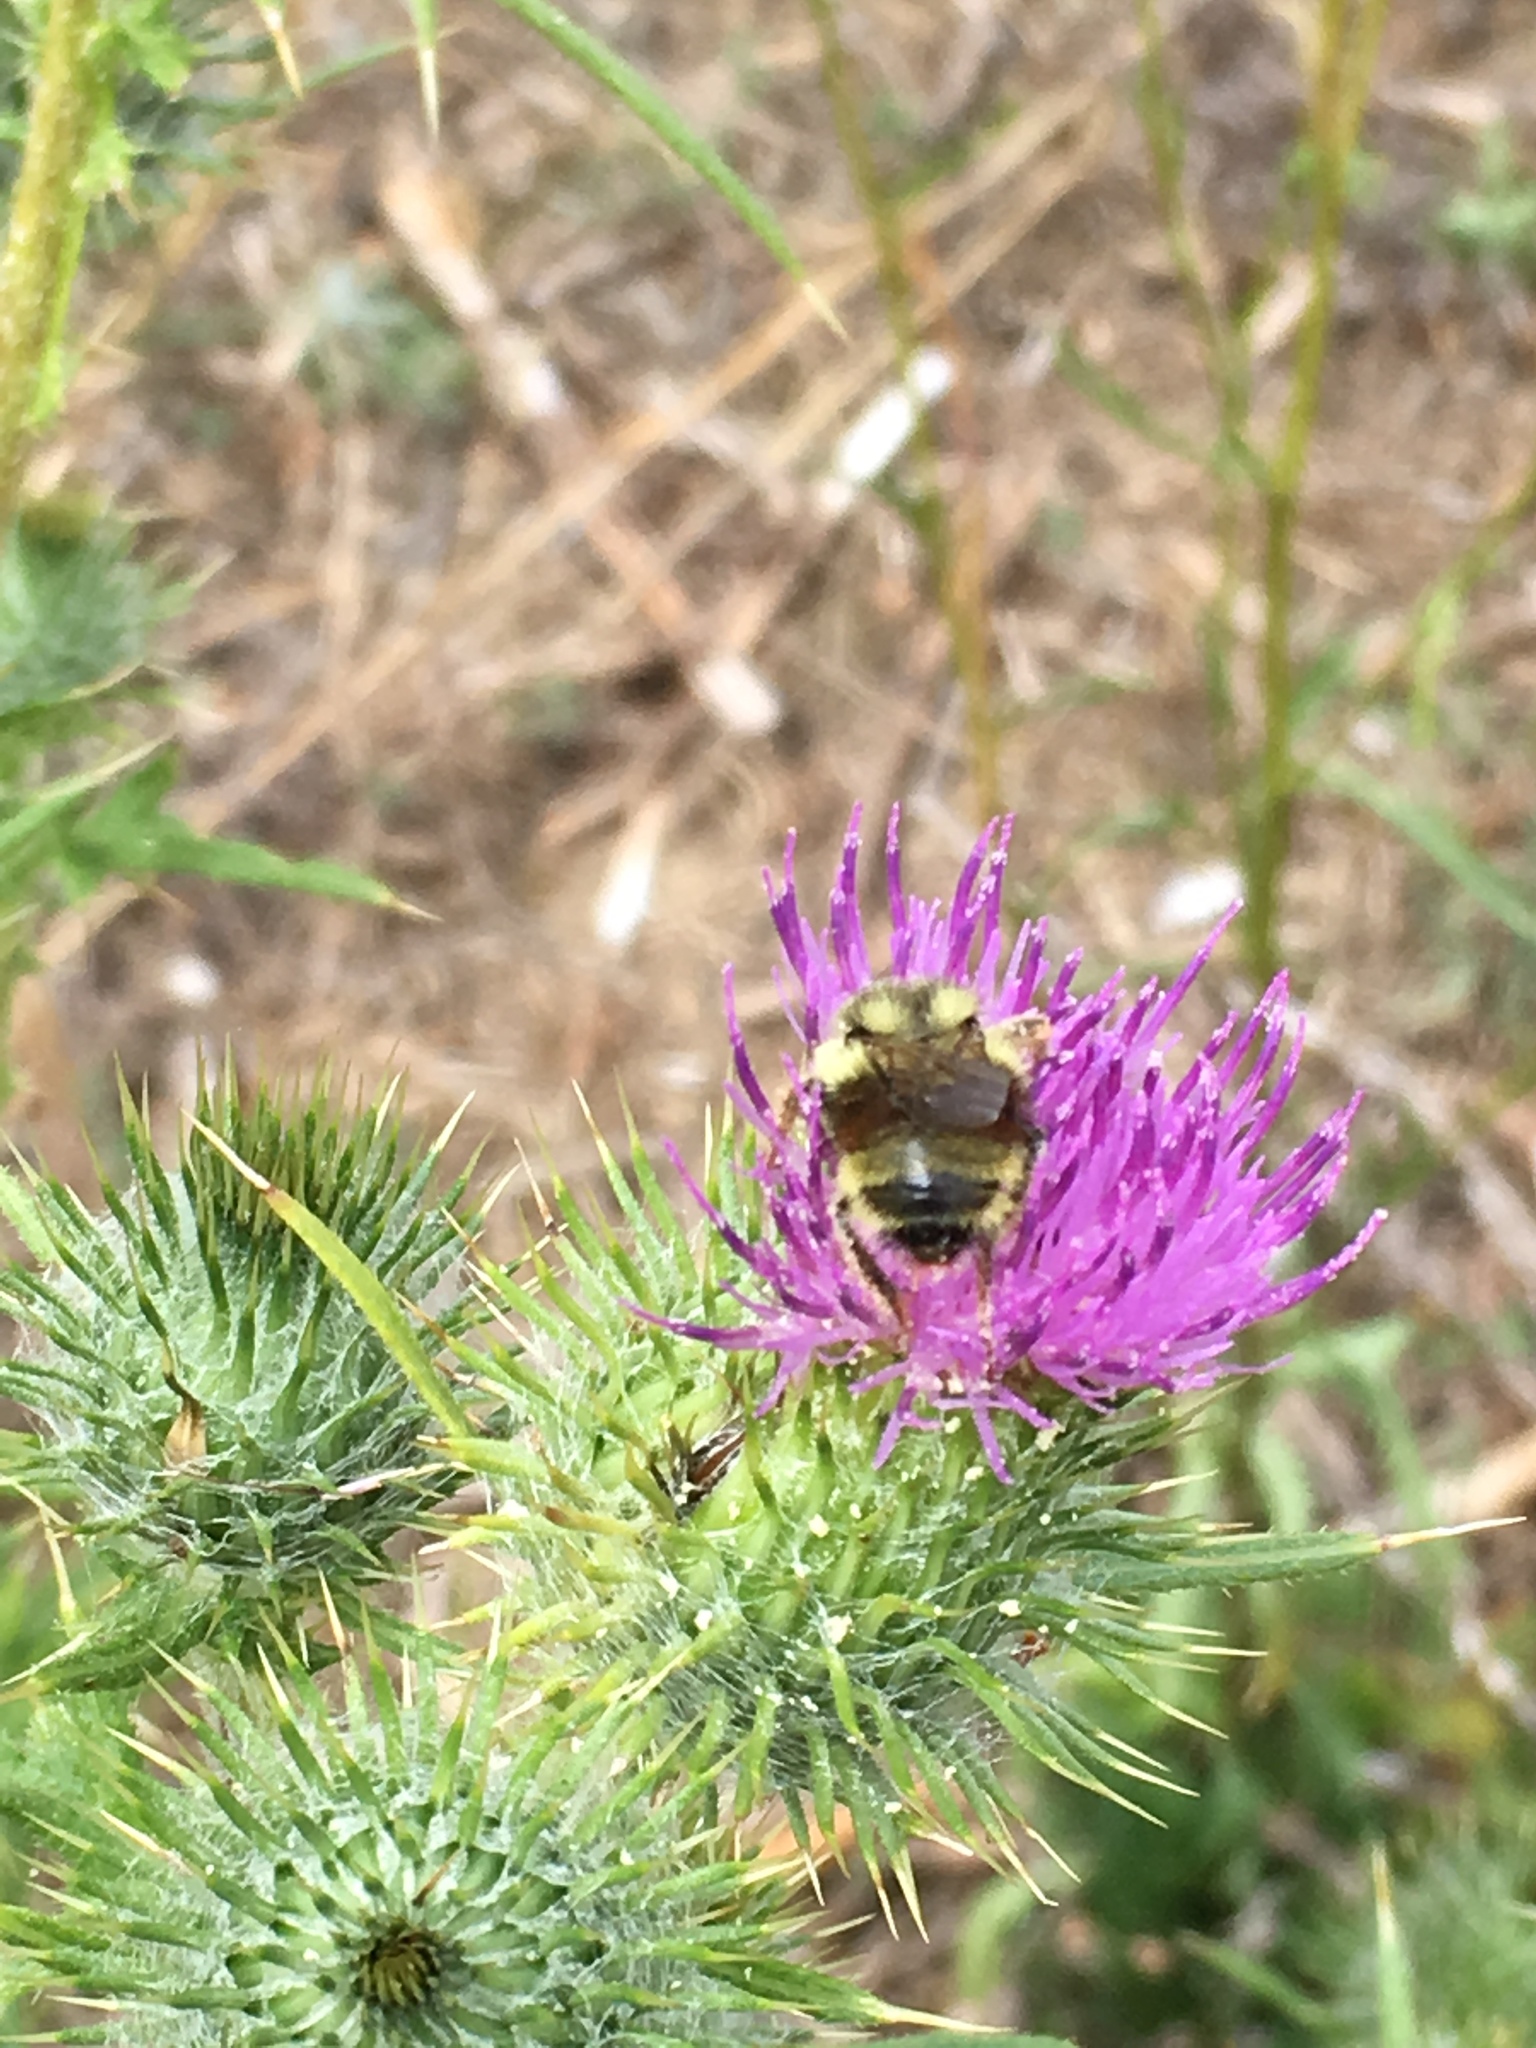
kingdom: Animalia
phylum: Arthropoda
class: Insecta
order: Hymenoptera
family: Apidae
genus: Bombus
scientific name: Bombus vancouverensis
